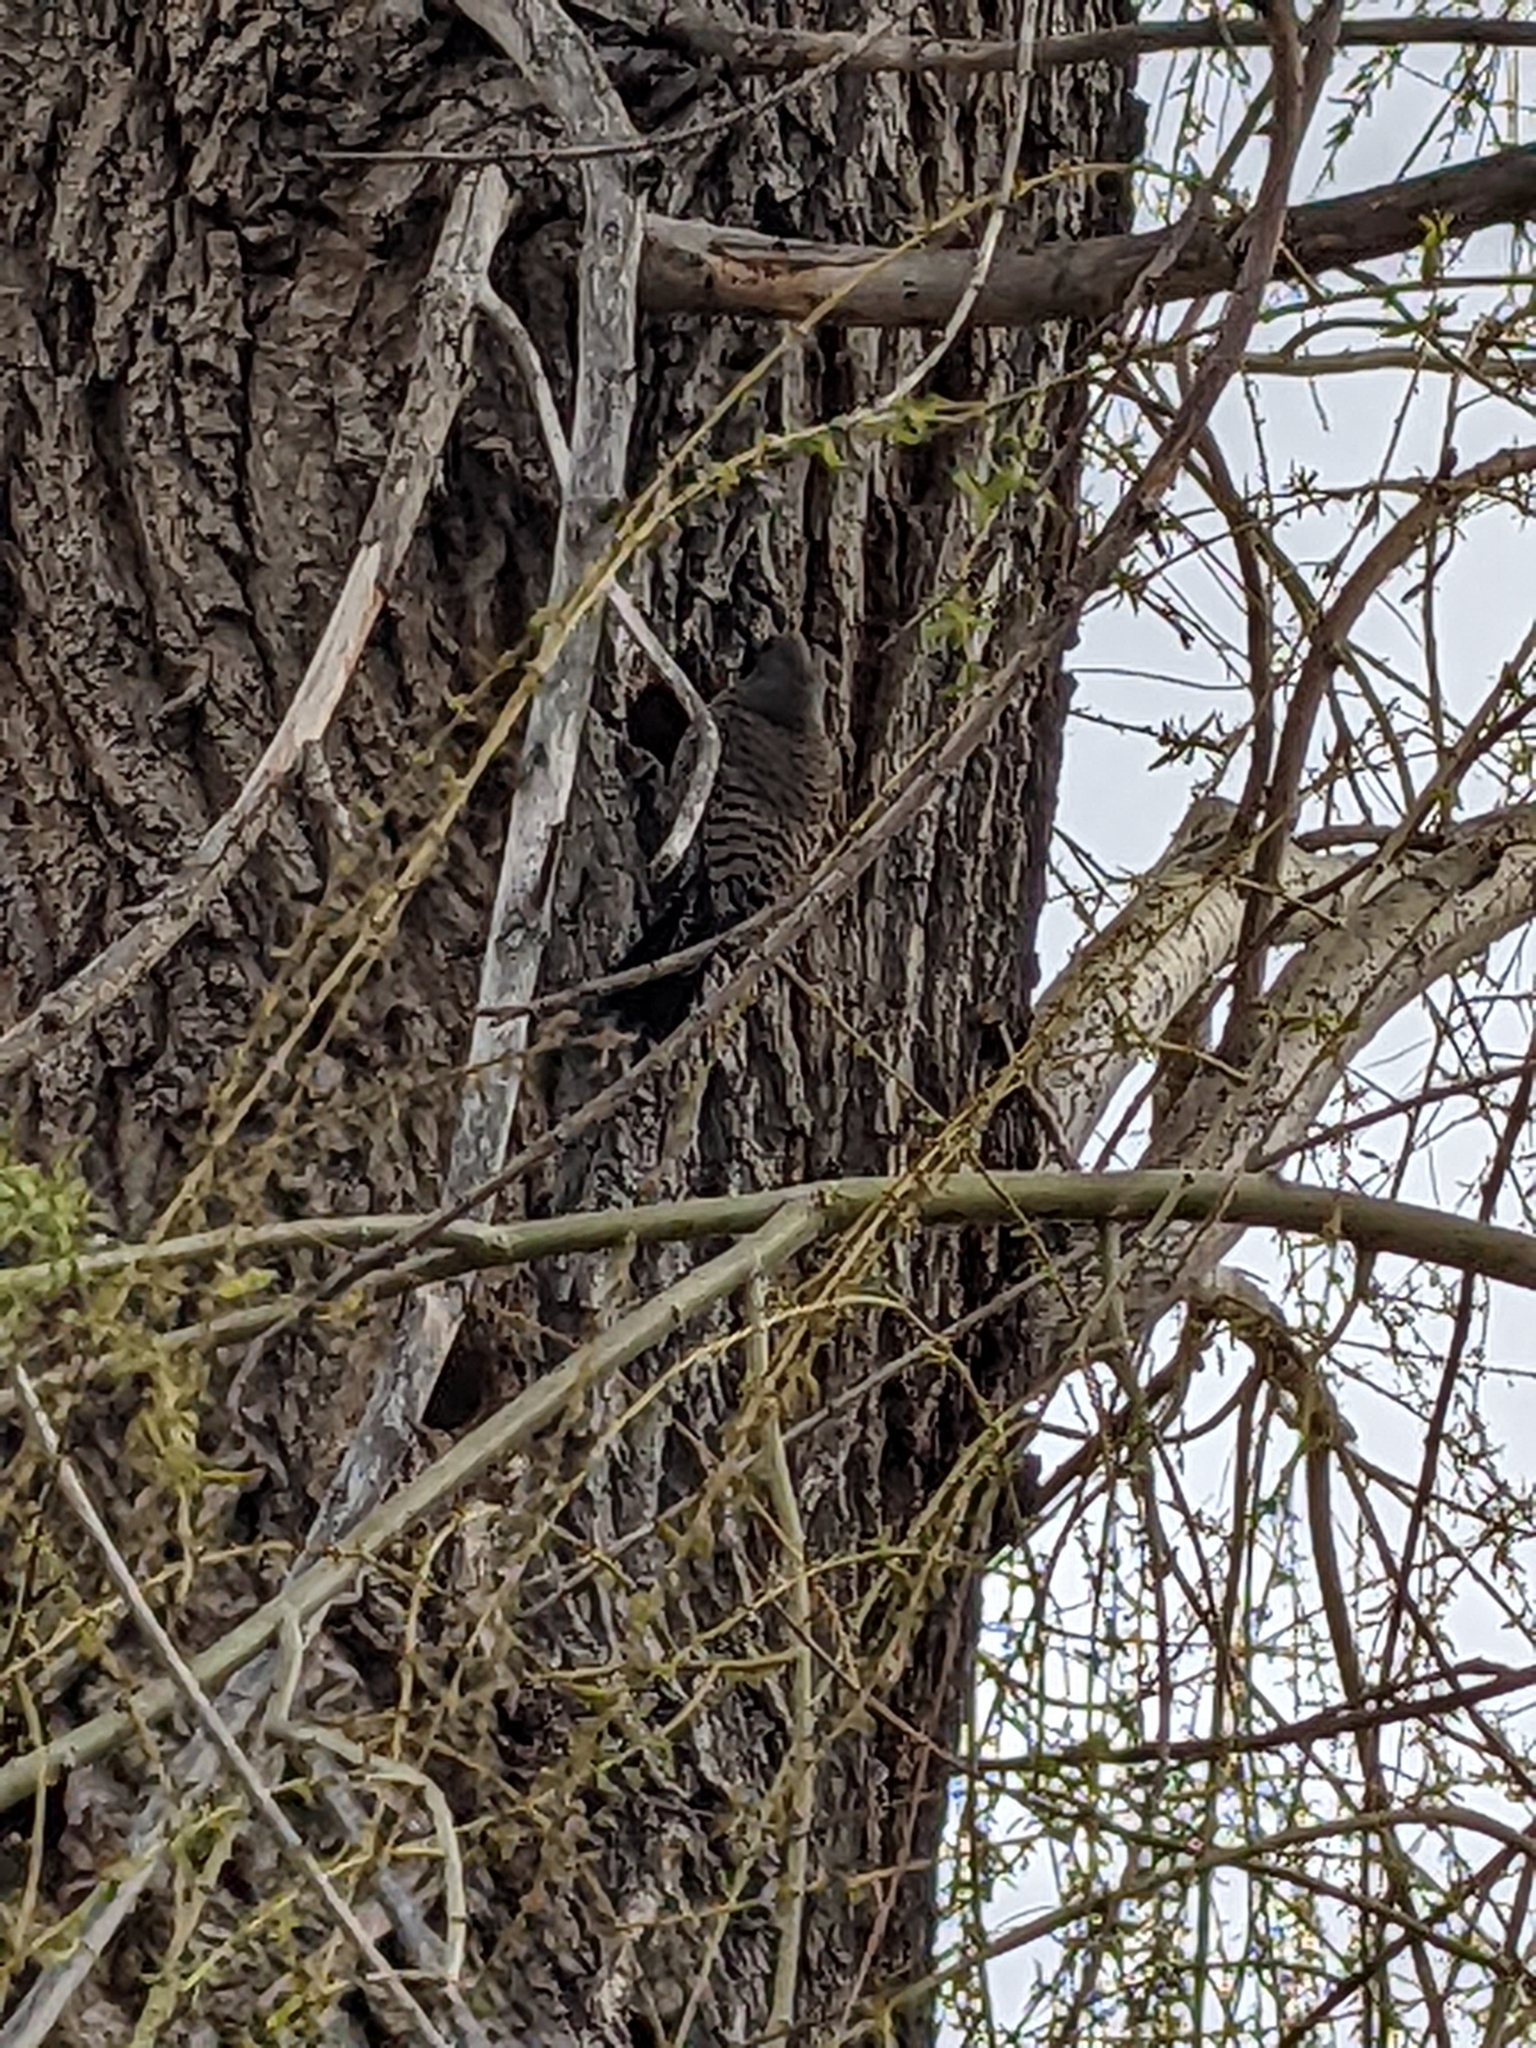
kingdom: Animalia
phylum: Chordata
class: Aves
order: Piciformes
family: Picidae
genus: Colaptes
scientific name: Colaptes auratus
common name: Northern flicker
